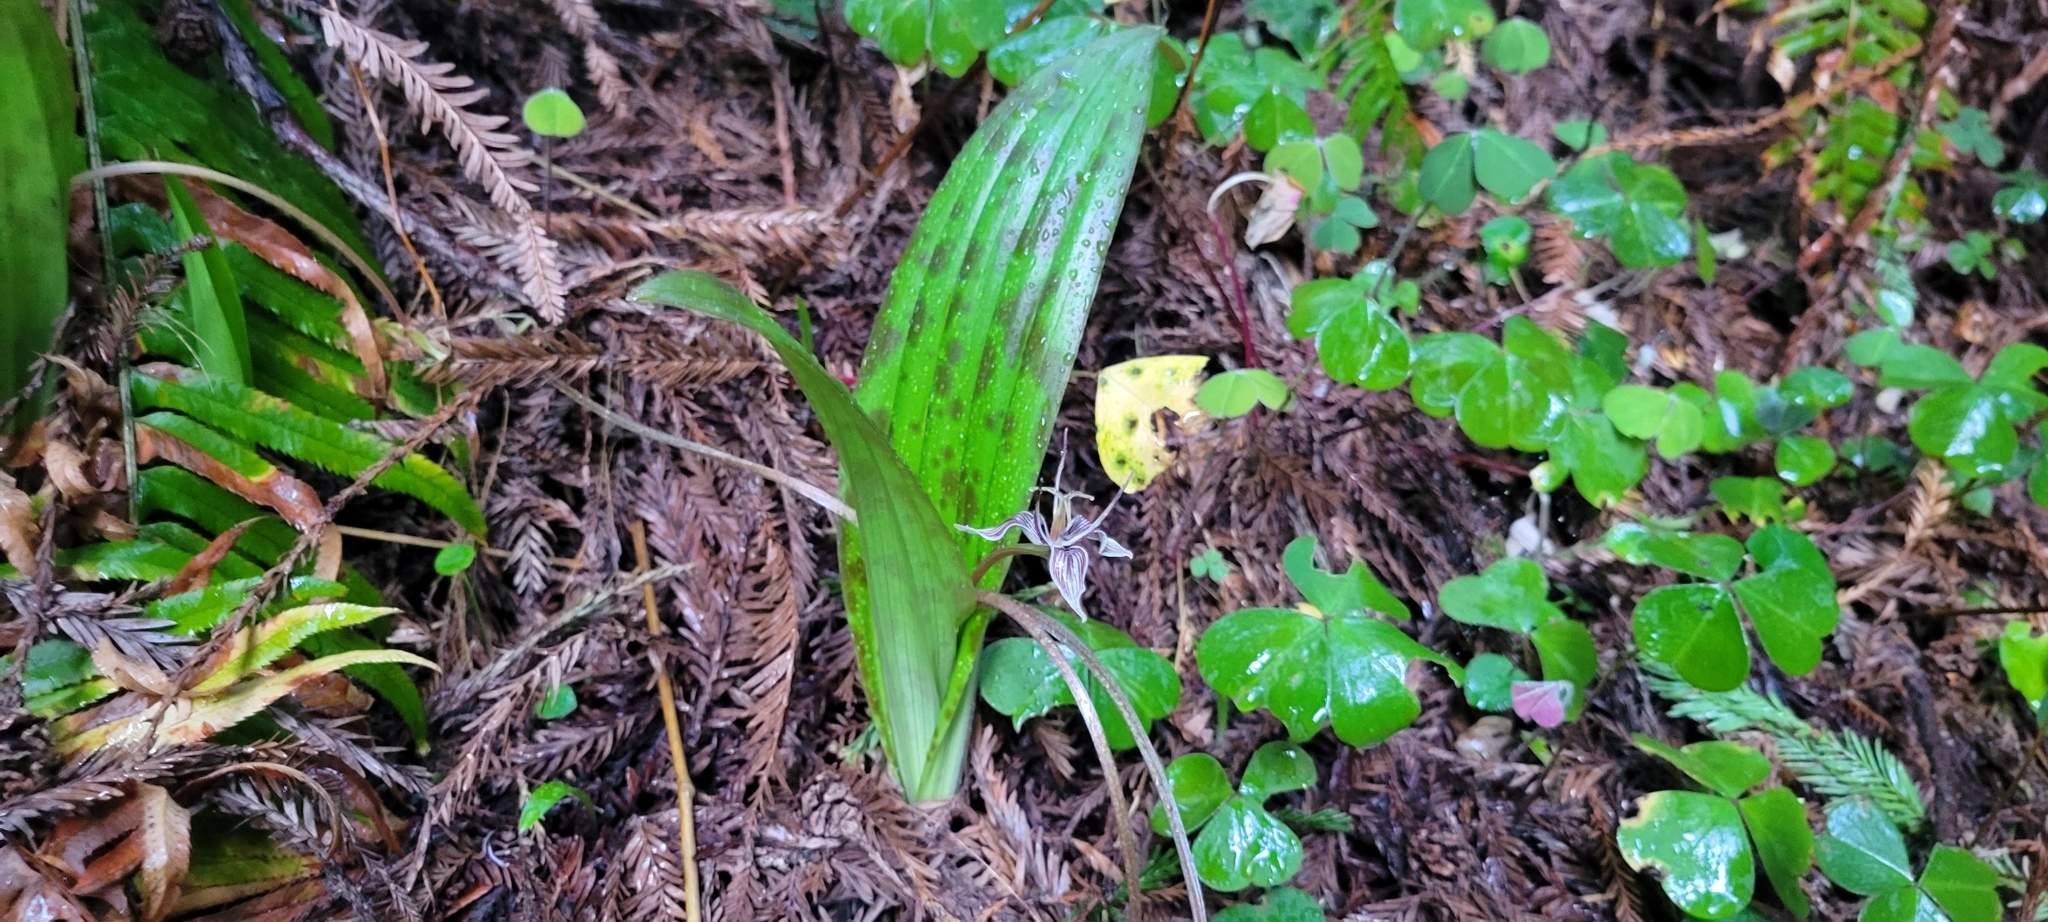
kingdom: Plantae
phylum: Tracheophyta
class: Liliopsida
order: Liliales
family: Liliaceae
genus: Scoliopus
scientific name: Scoliopus bigelovii
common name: Foetid adder's-tongue
